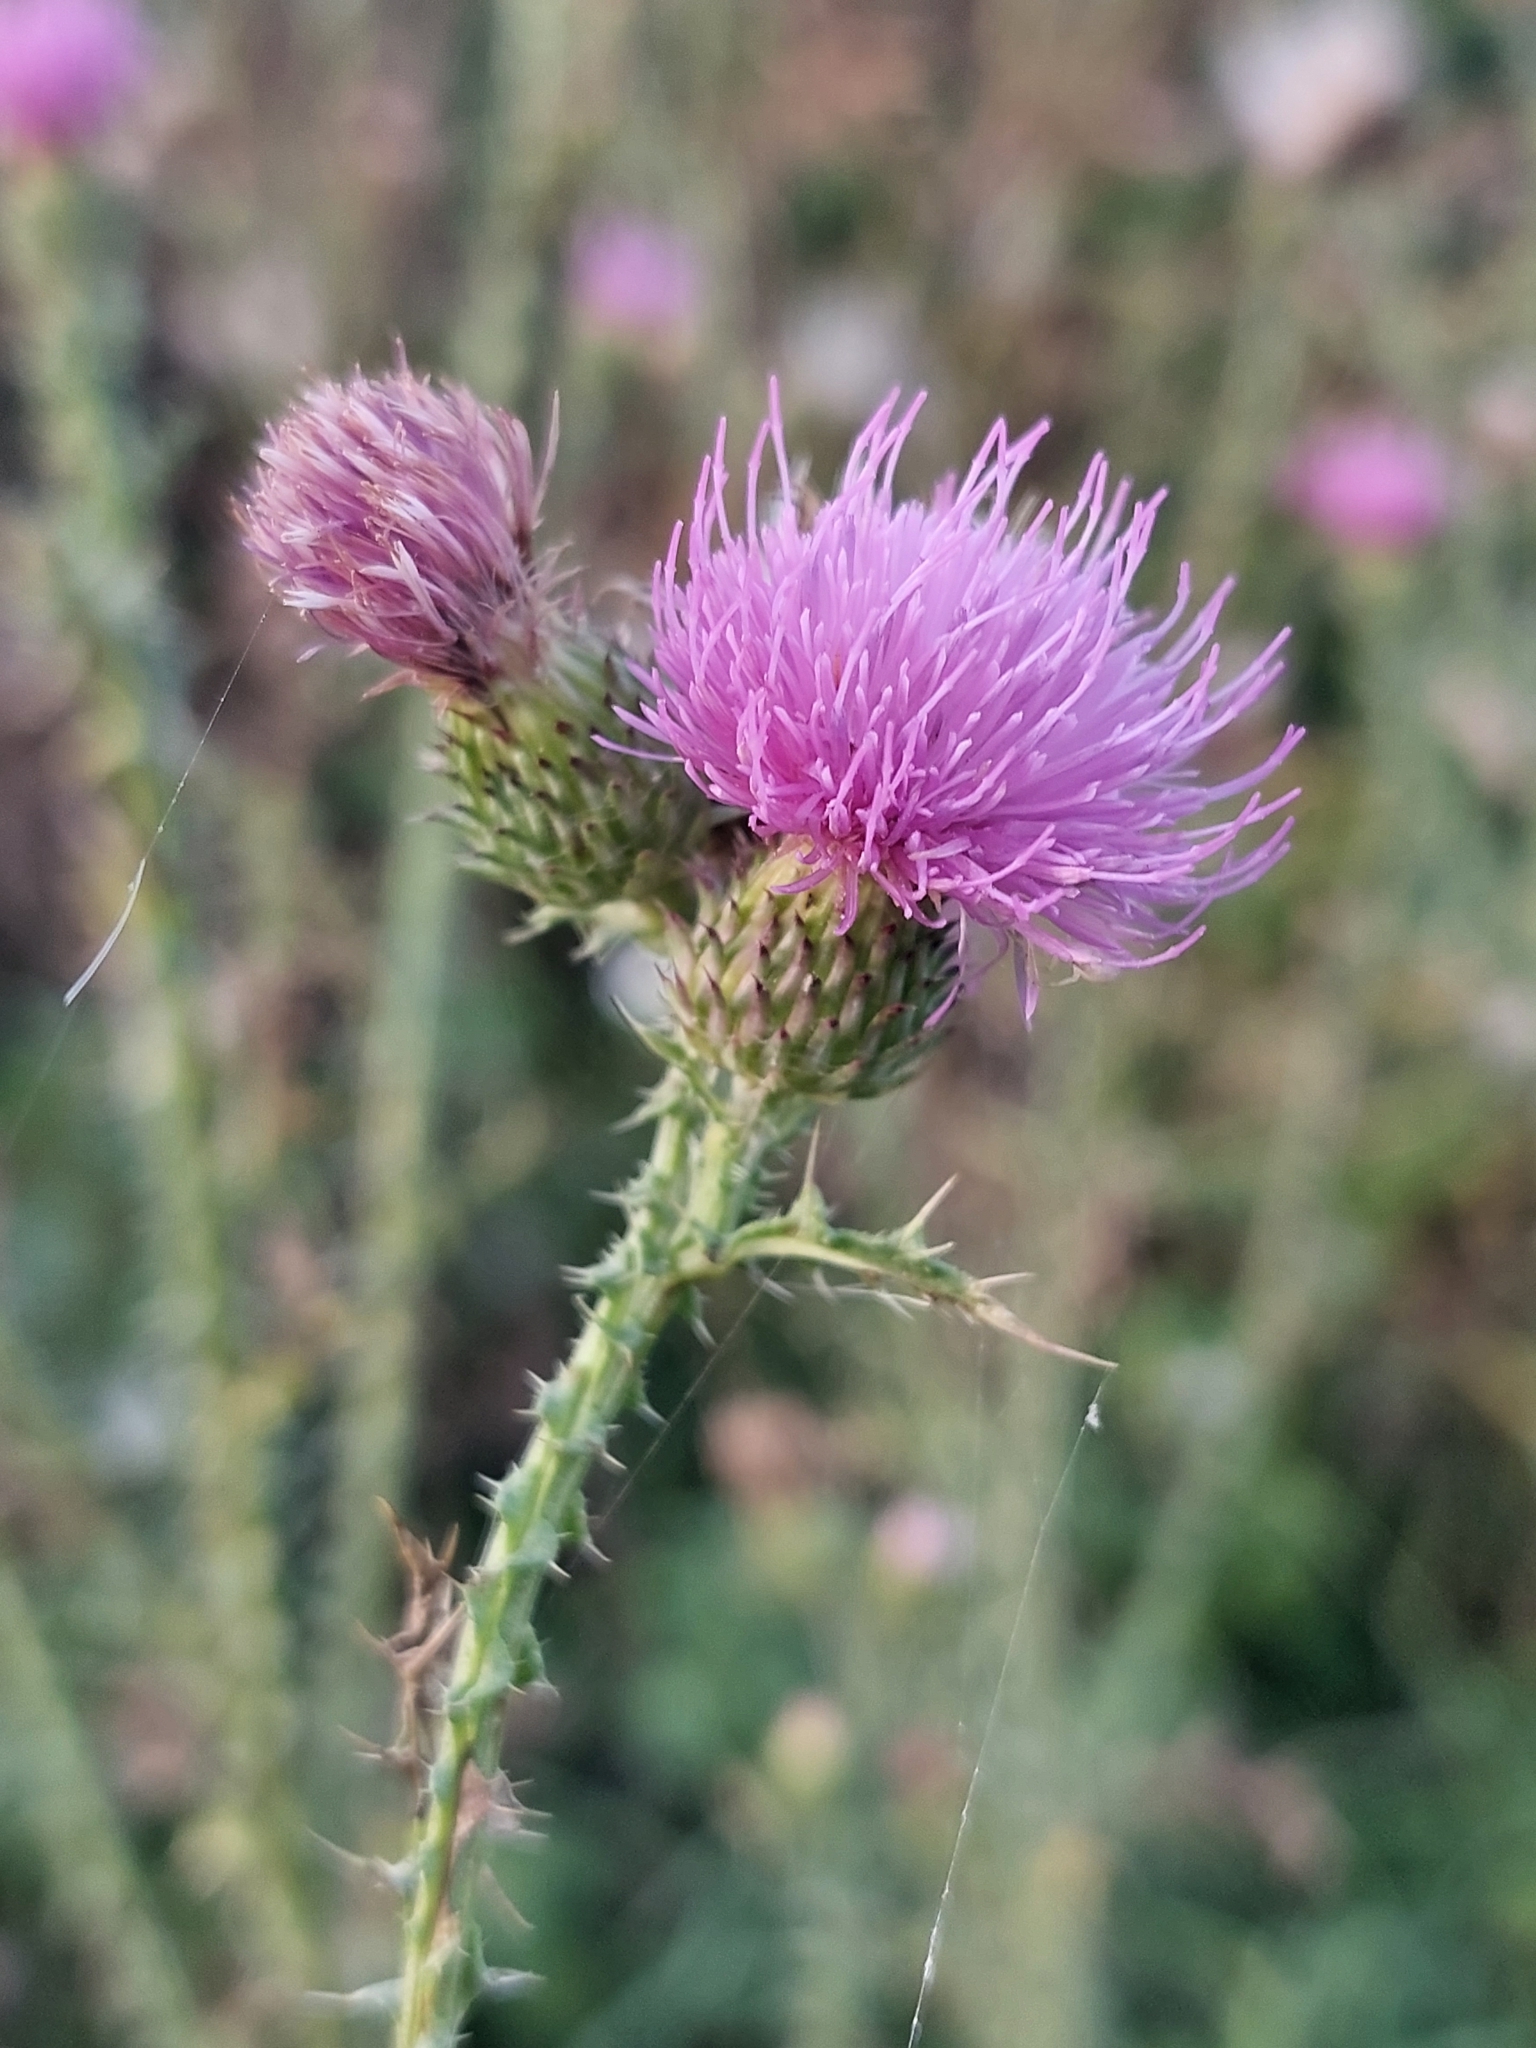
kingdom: Plantae
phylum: Tracheophyta
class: Magnoliopsida
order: Asterales
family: Asteraceae
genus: Carduus
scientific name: Carduus acanthoides
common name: Plumeless thistle
